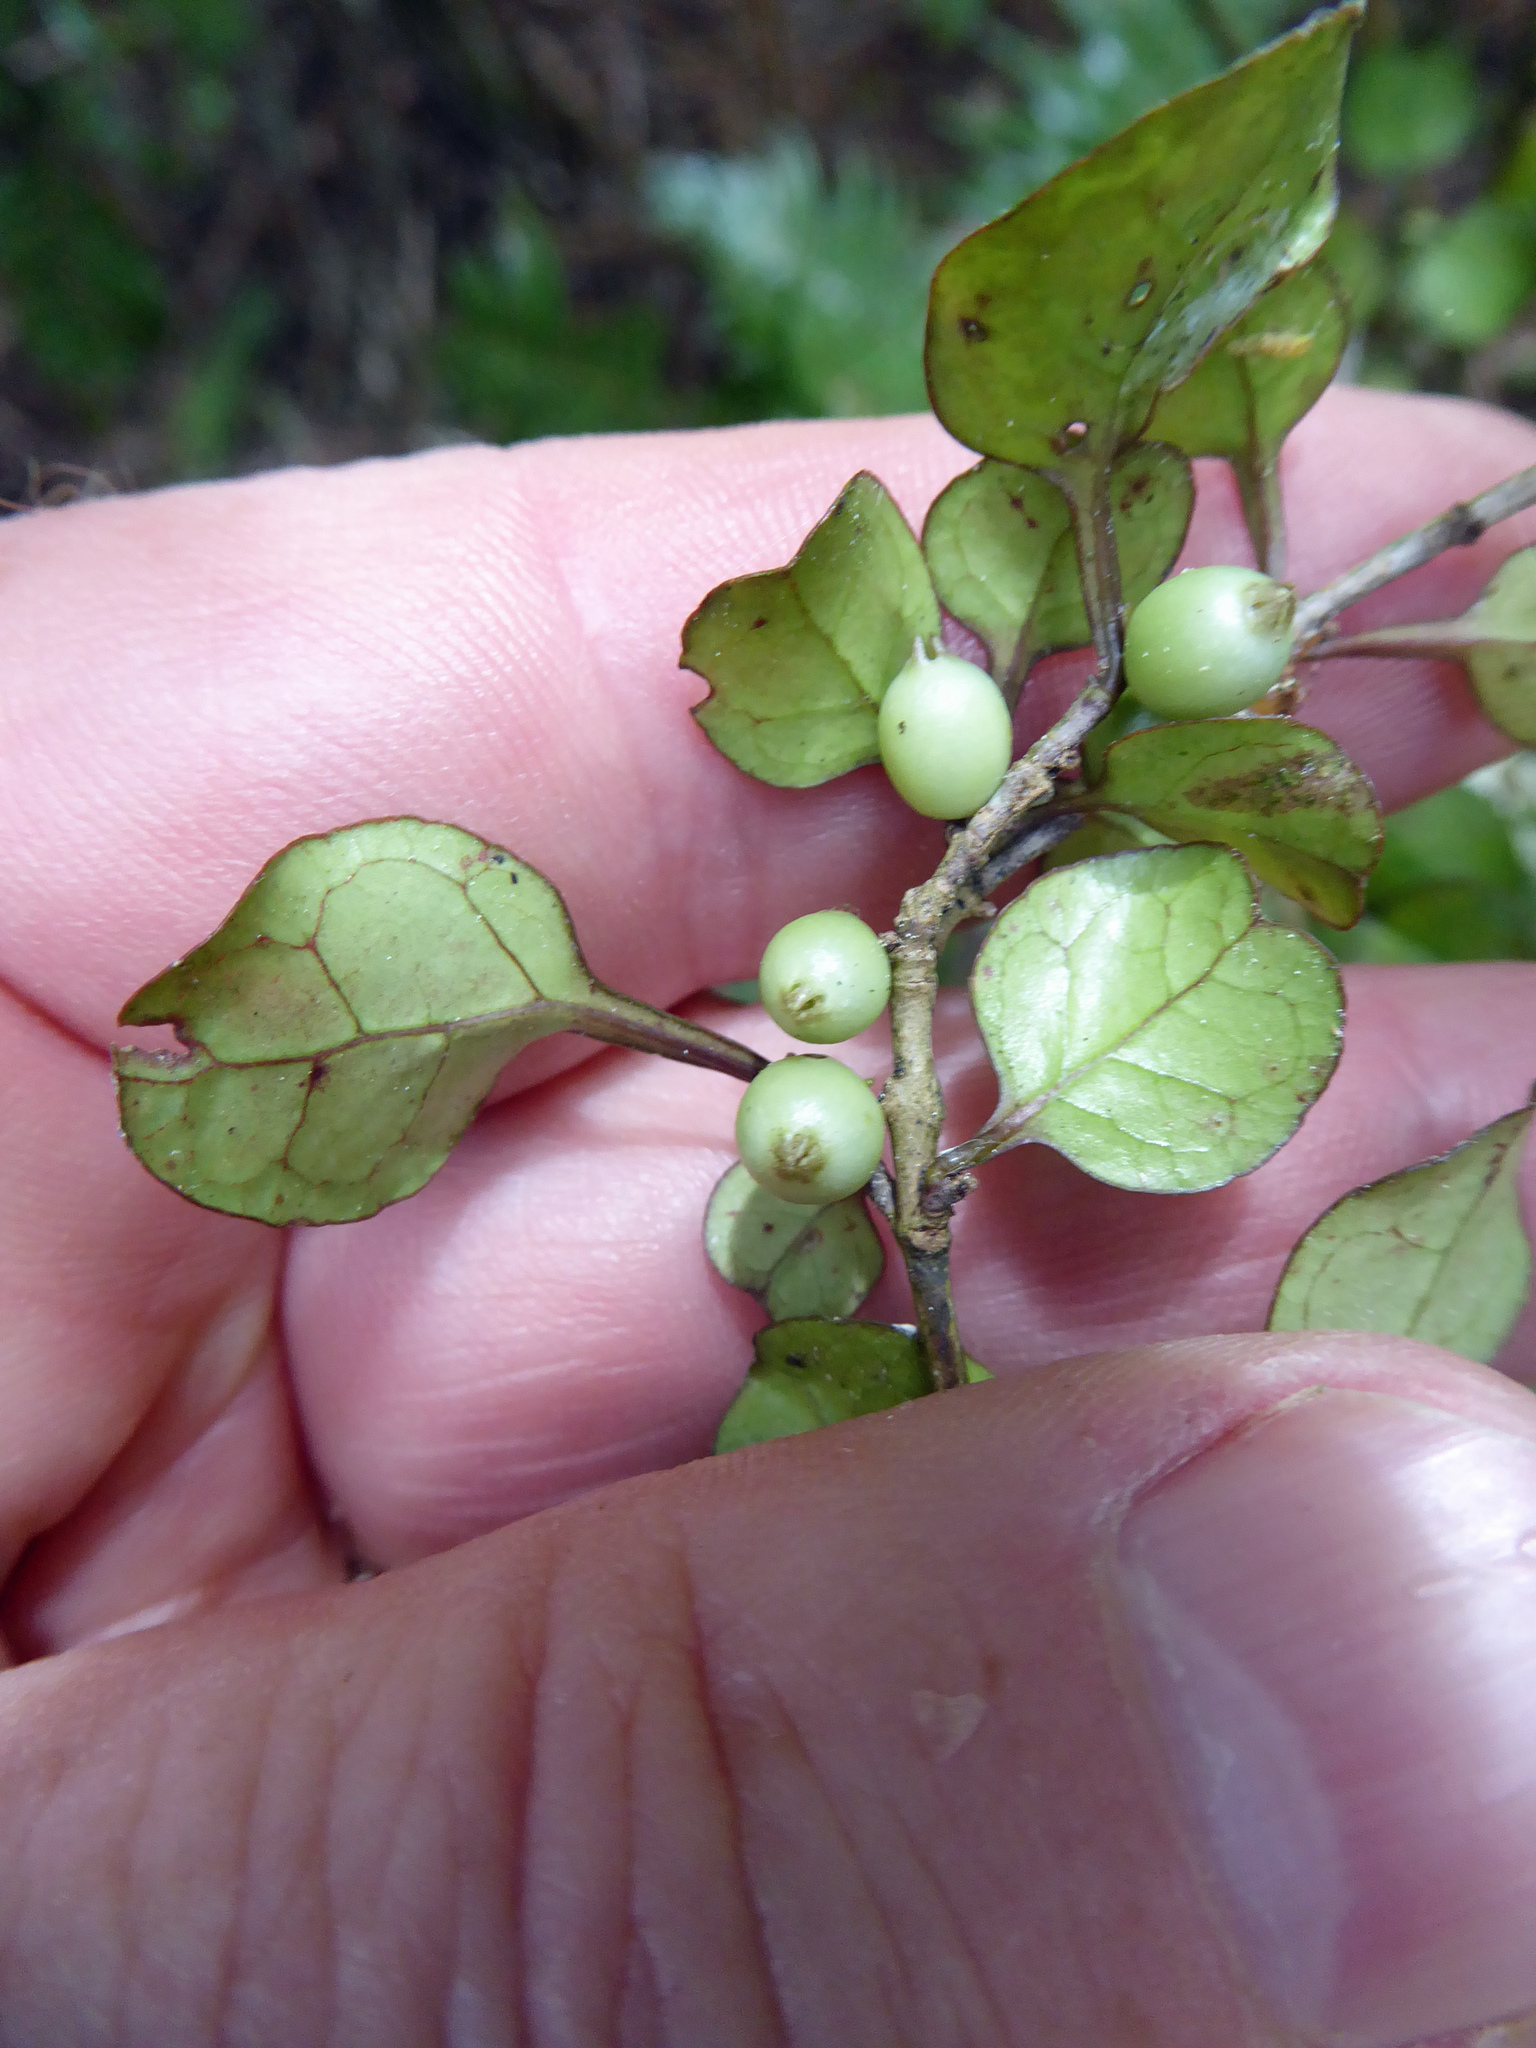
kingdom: Plantae
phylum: Tracheophyta
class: Magnoliopsida
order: Gentianales
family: Rubiaceae
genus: Coprosma
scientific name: Coprosma spathulata
